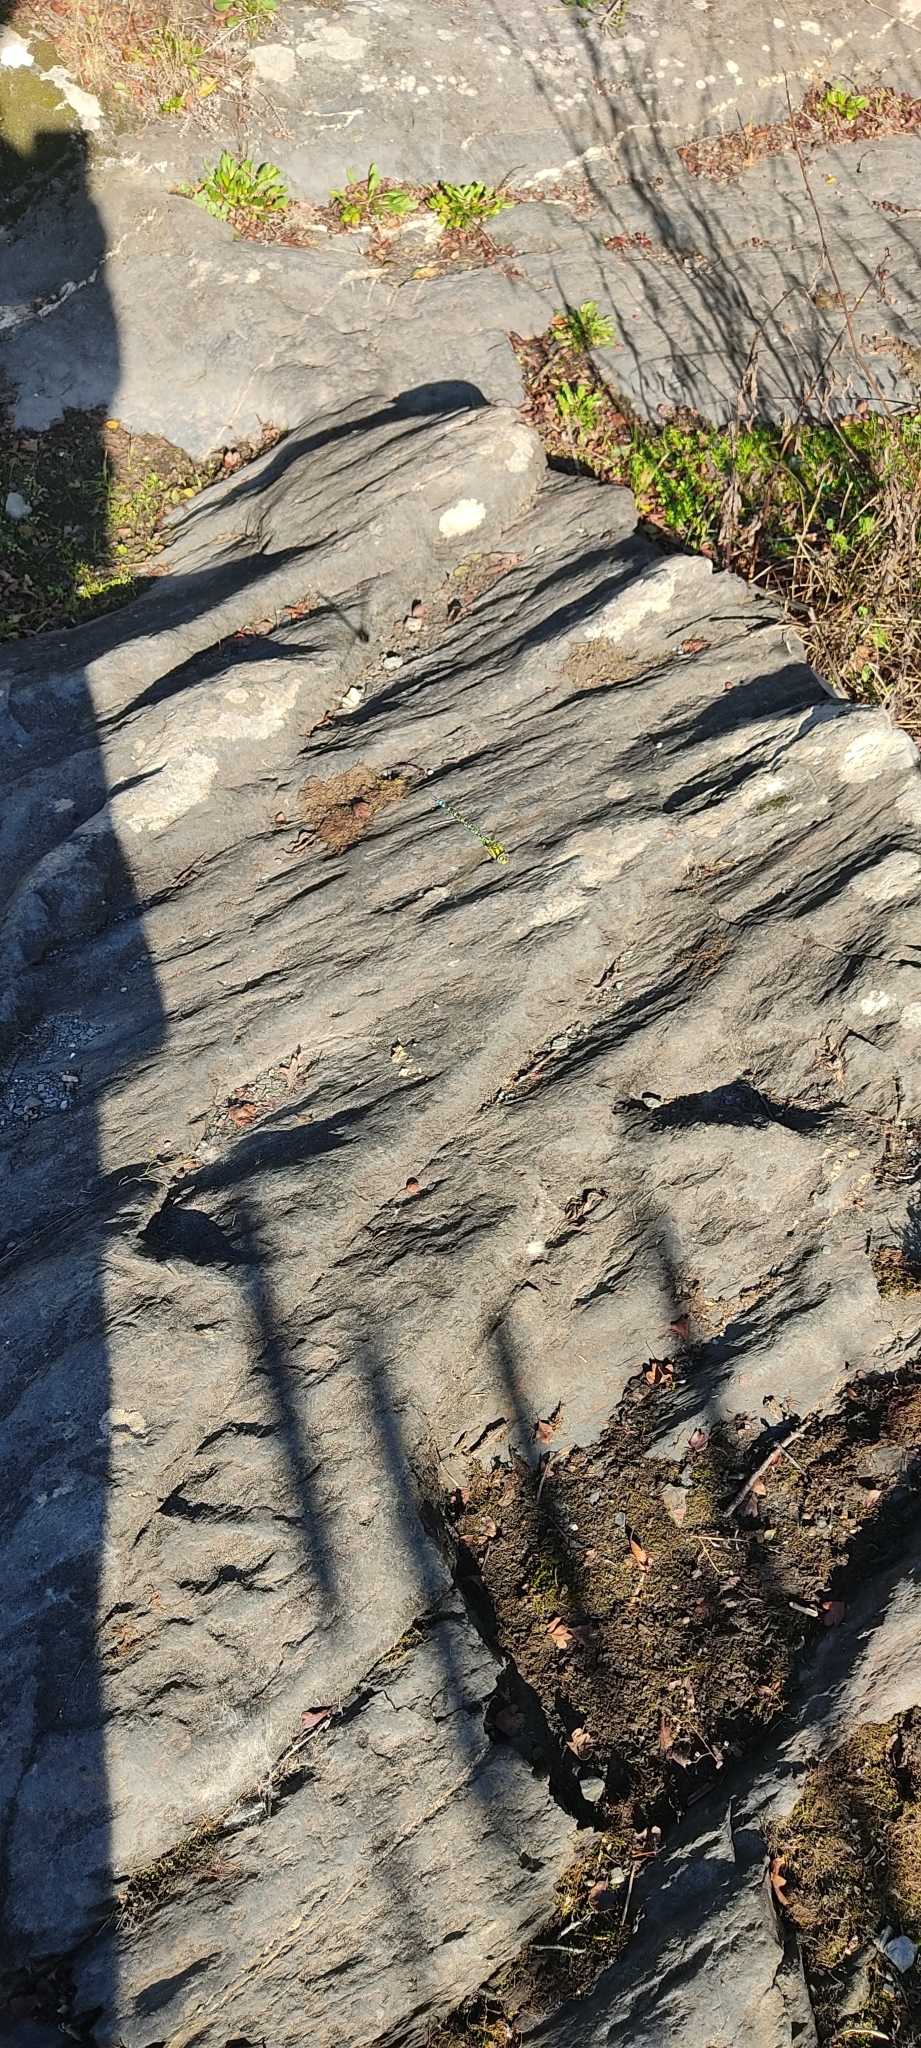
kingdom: Animalia
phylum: Arthropoda
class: Insecta
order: Odonata
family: Aeshnidae
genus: Aeshna
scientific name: Aeshna cyanea
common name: Southern hawker
